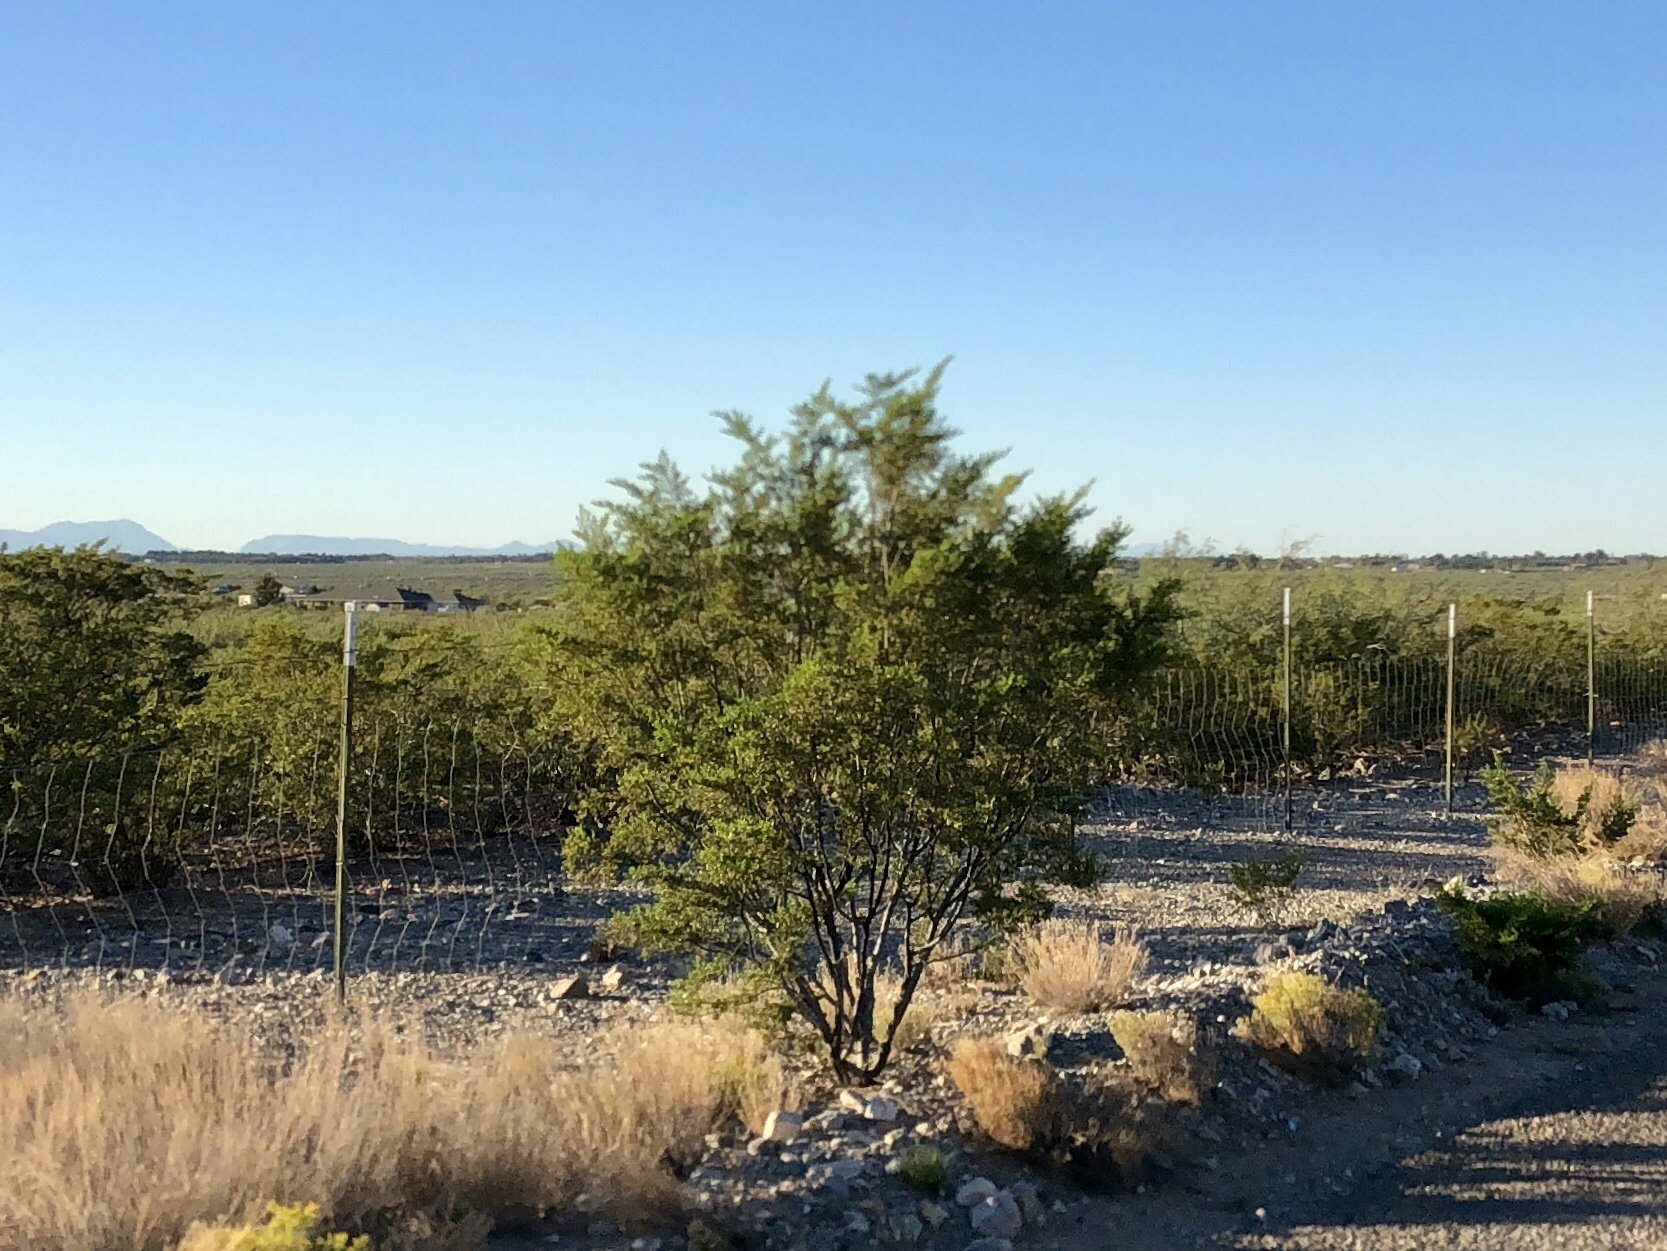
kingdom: Plantae
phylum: Tracheophyta
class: Magnoliopsida
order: Zygophyllales
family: Zygophyllaceae
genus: Larrea
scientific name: Larrea tridentata
